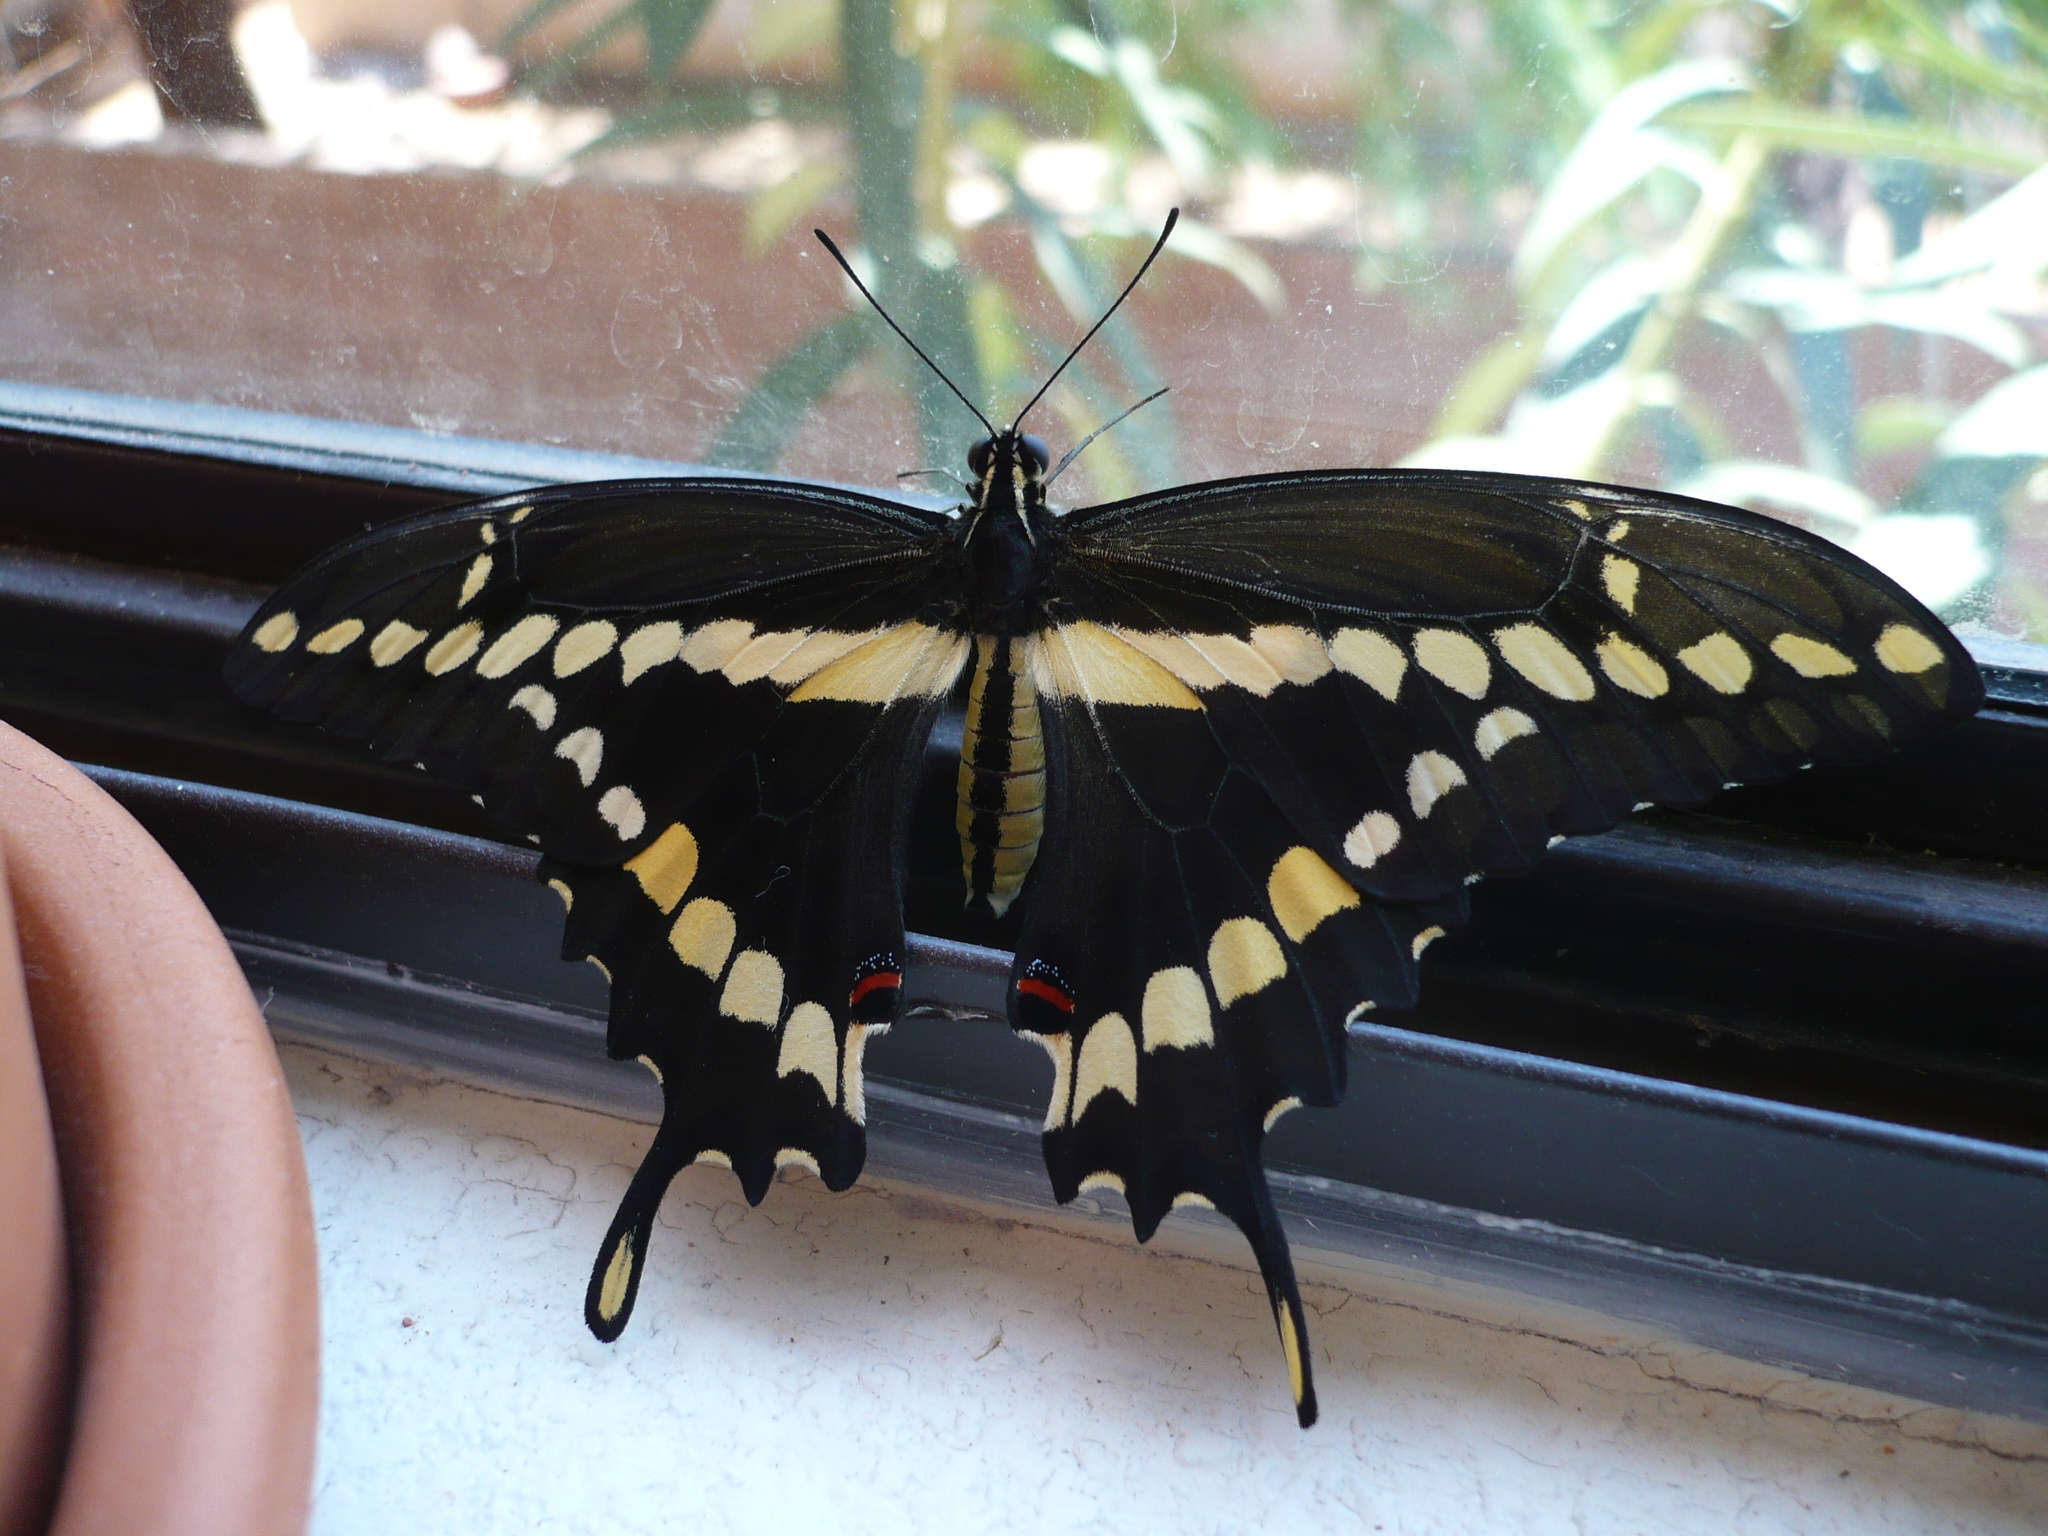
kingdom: Animalia
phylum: Arthropoda
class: Insecta
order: Lepidoptera
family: Papilionidae
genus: Papilio
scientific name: Papilio rumiko
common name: Western giant swallowtail
